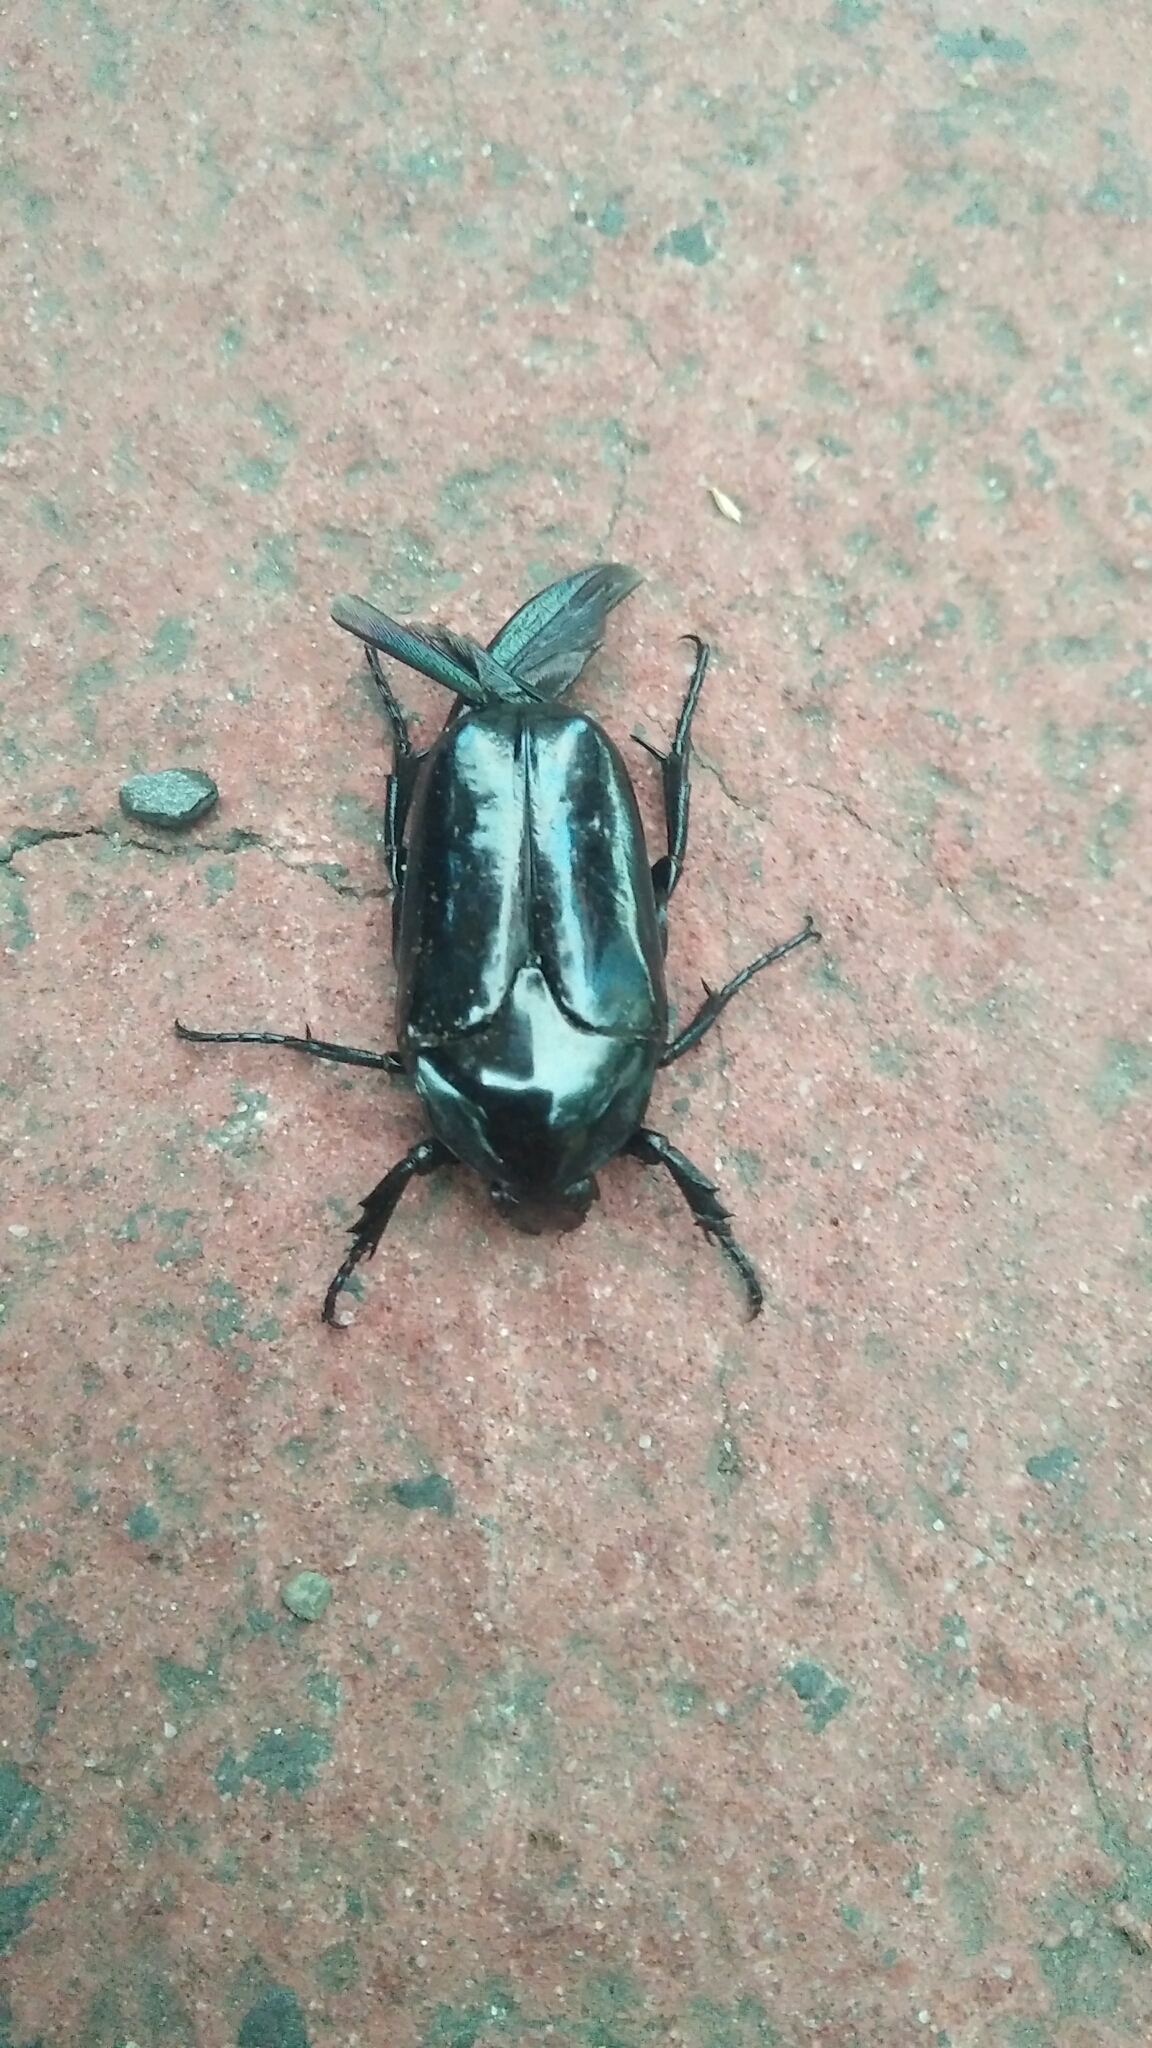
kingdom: Animalia
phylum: Arthropoda
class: Insecta
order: Coleoptera
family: Scarabaeidae
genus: Macronota
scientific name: Macronota shangaicus
